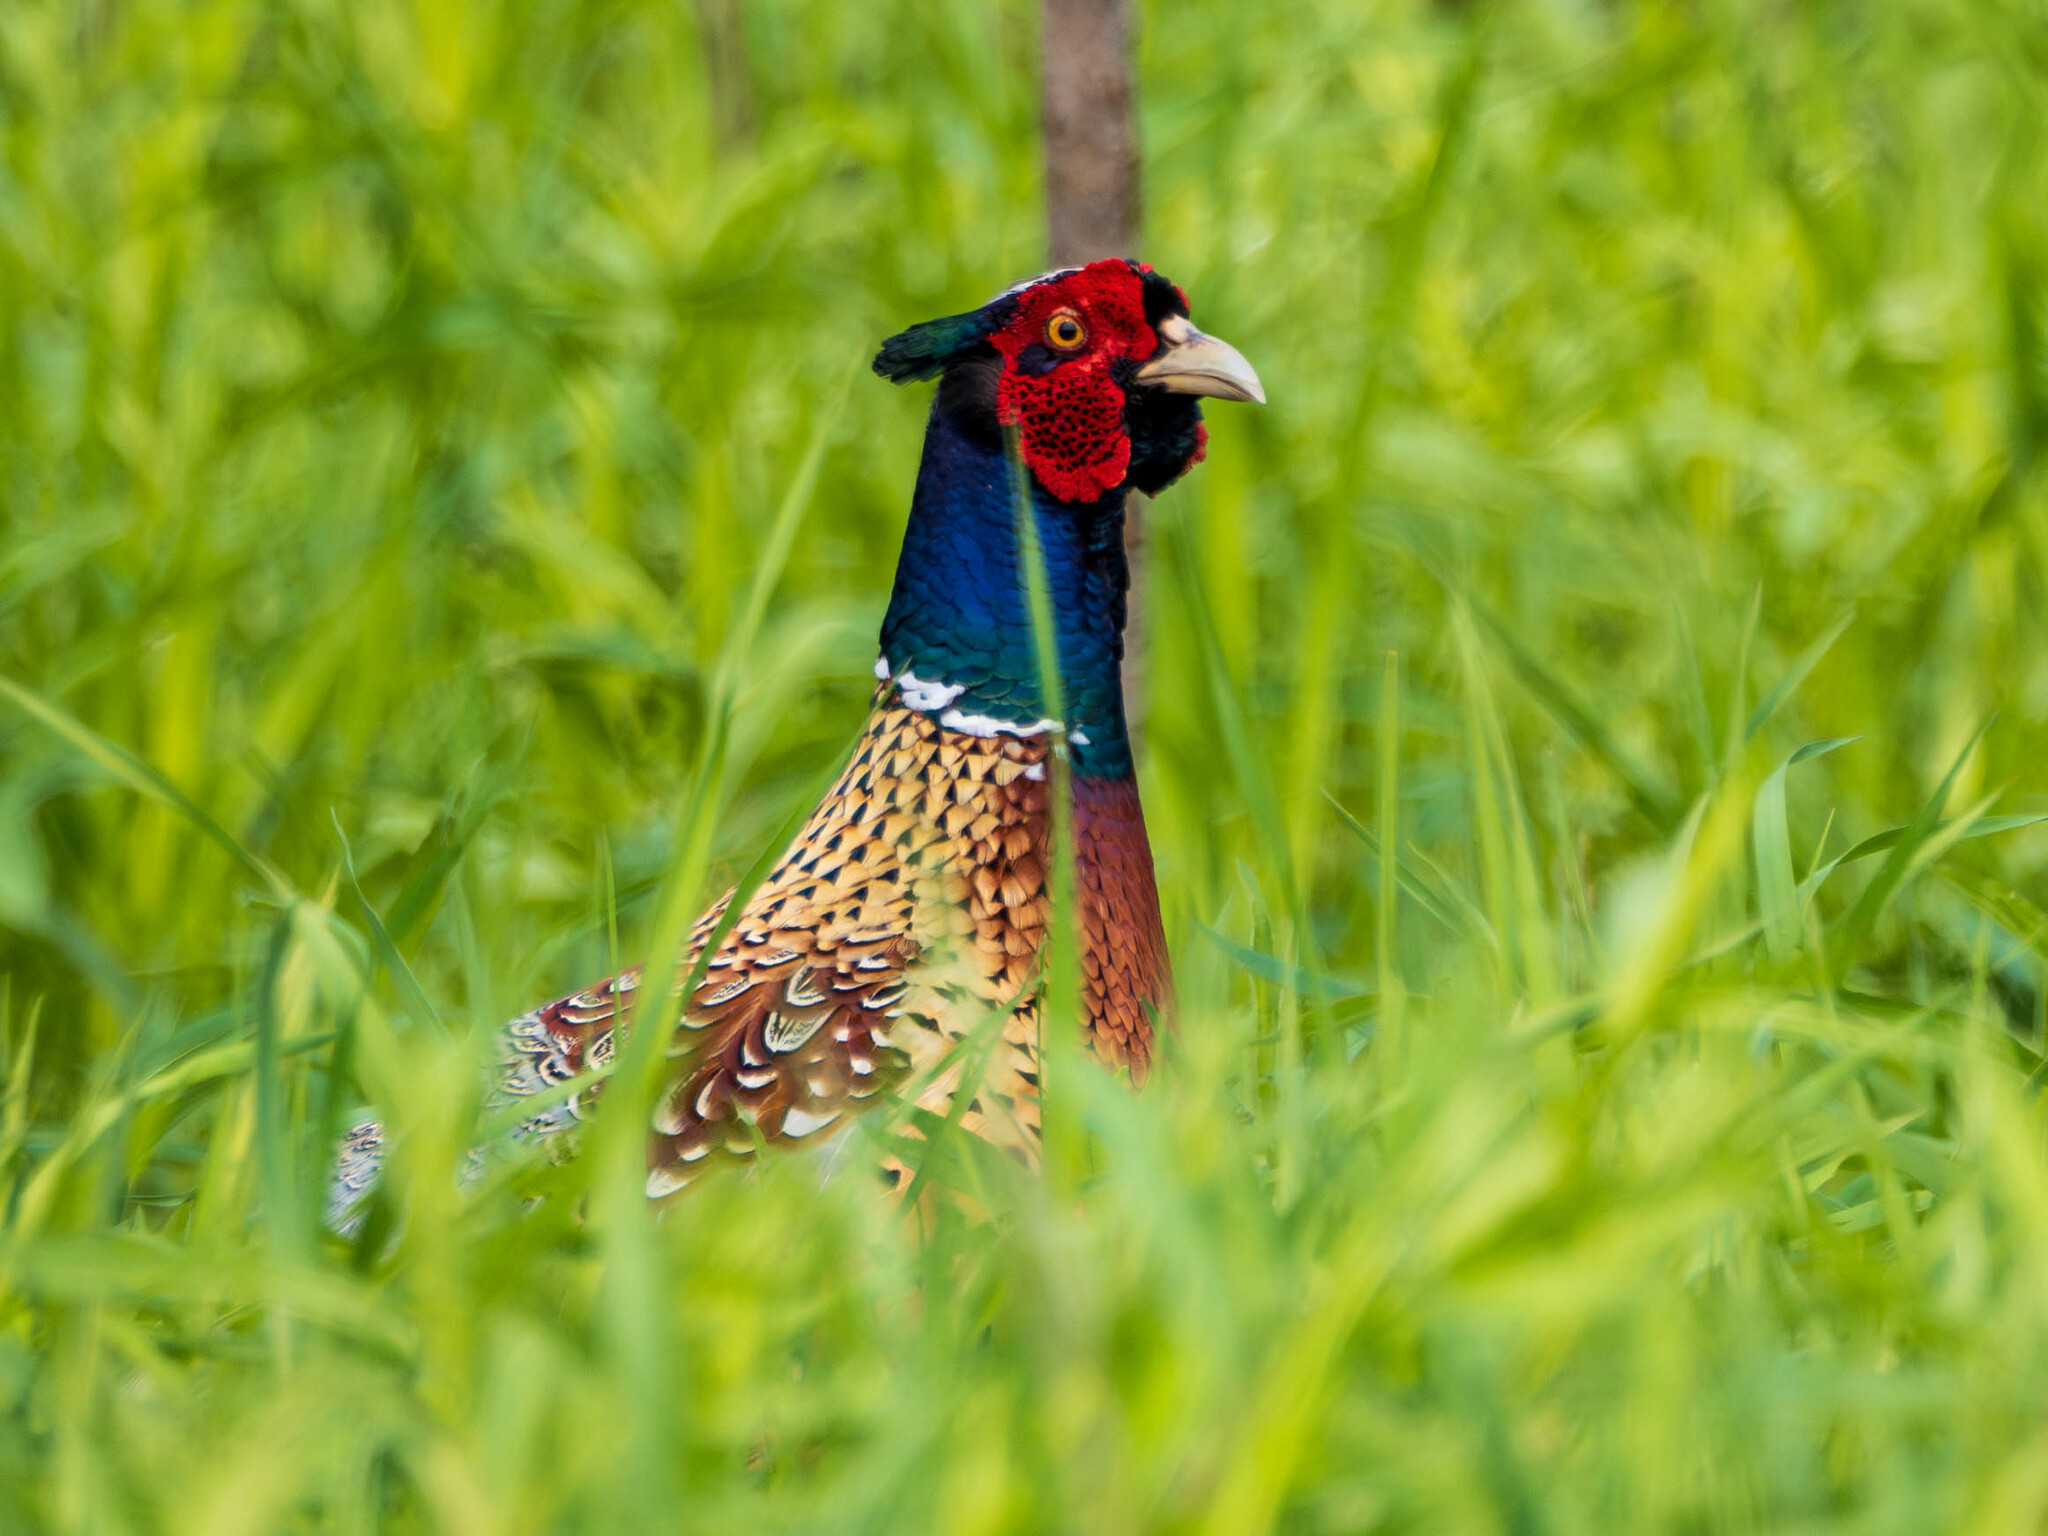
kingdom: Animalia
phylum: Chordata
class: Aves
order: Galliformes
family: Phasianidae
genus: Phasianus
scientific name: Phasianus colchicus
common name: Common pheasant
